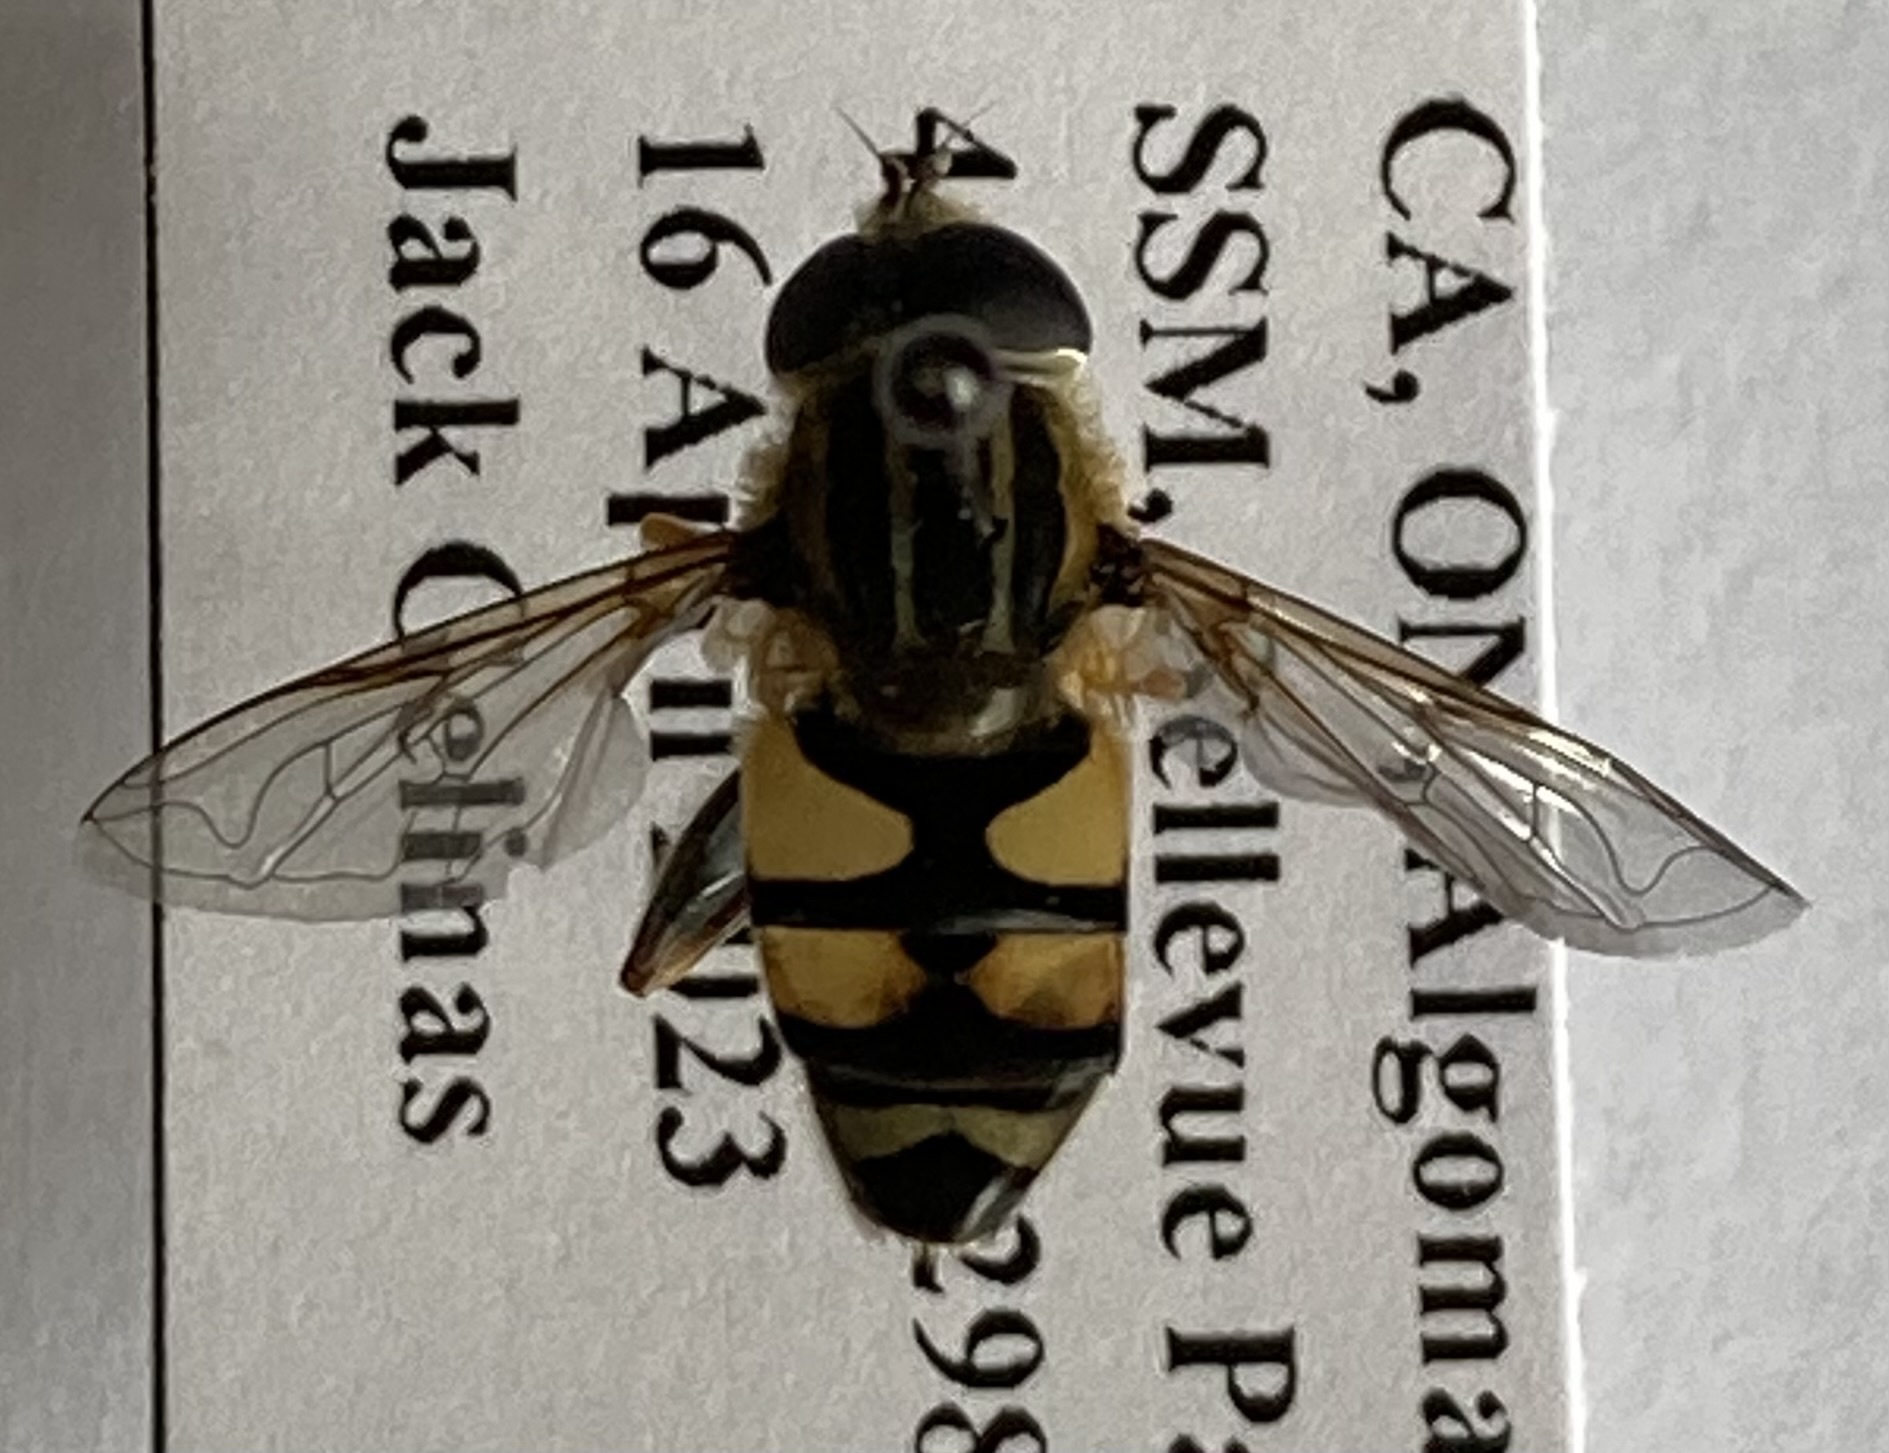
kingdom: Animalia
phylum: Arthropoda
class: Insecta
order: Diptera
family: Syrphidae
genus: Helophilus
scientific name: Helophilus fasciatus
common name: Narrow-headed marsh fly
